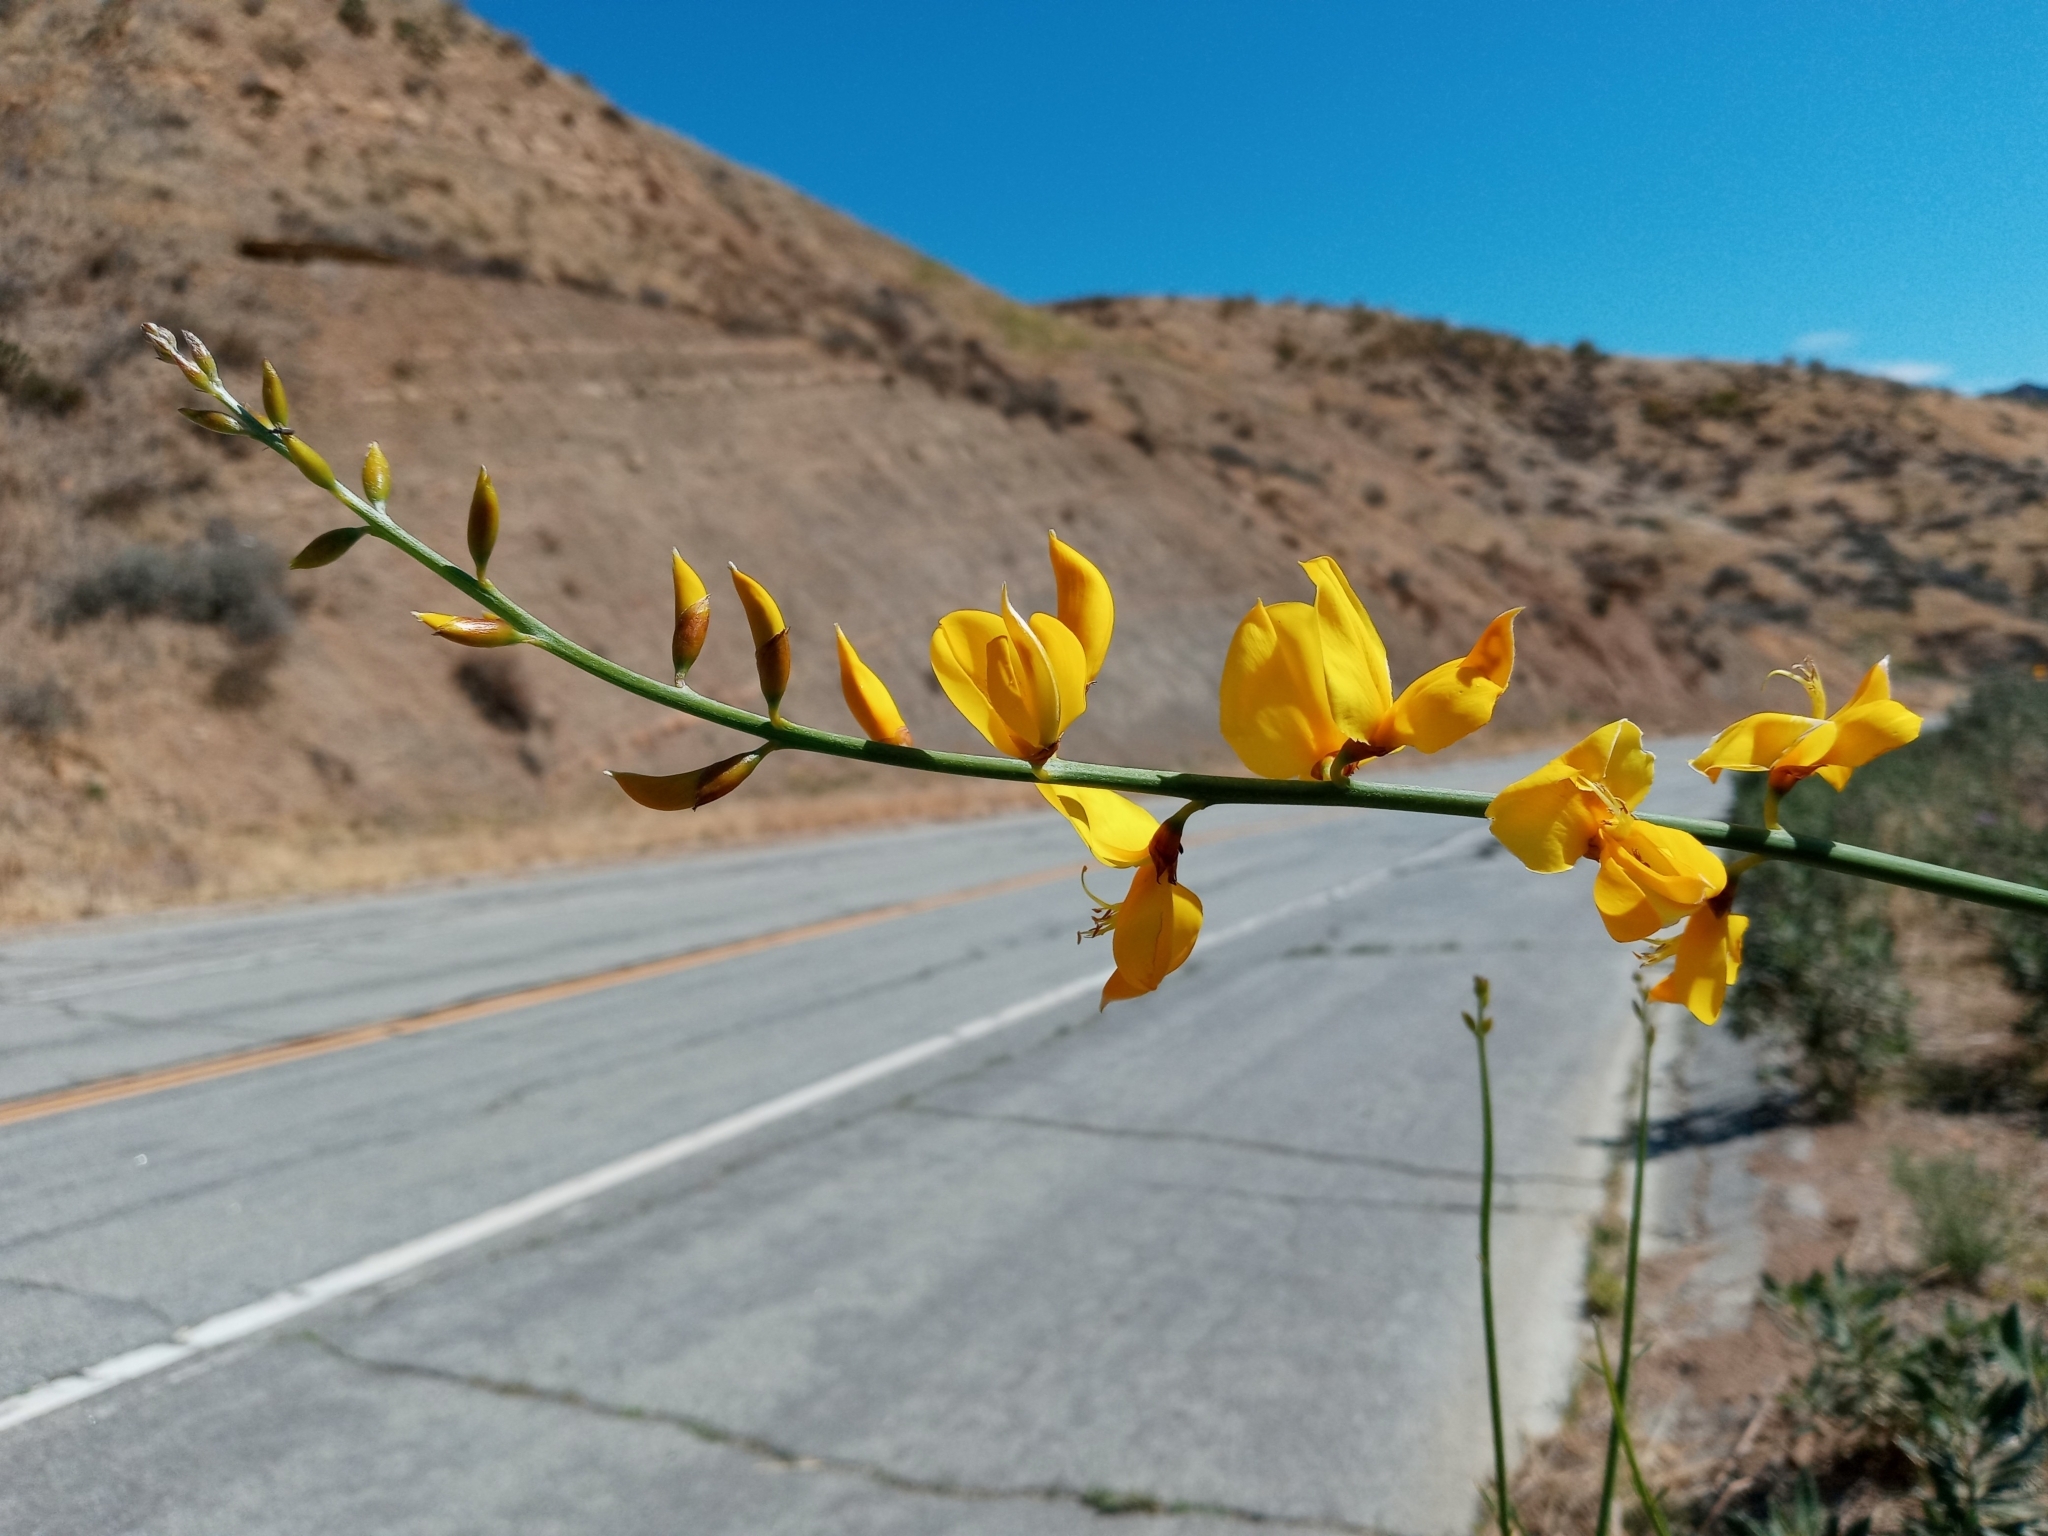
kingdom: Plantae
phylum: Tracheophyta
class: Magnoliopsida
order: Fabales
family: Fabaceae
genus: Spartium
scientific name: Spartium junceum
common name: Spanish broom
